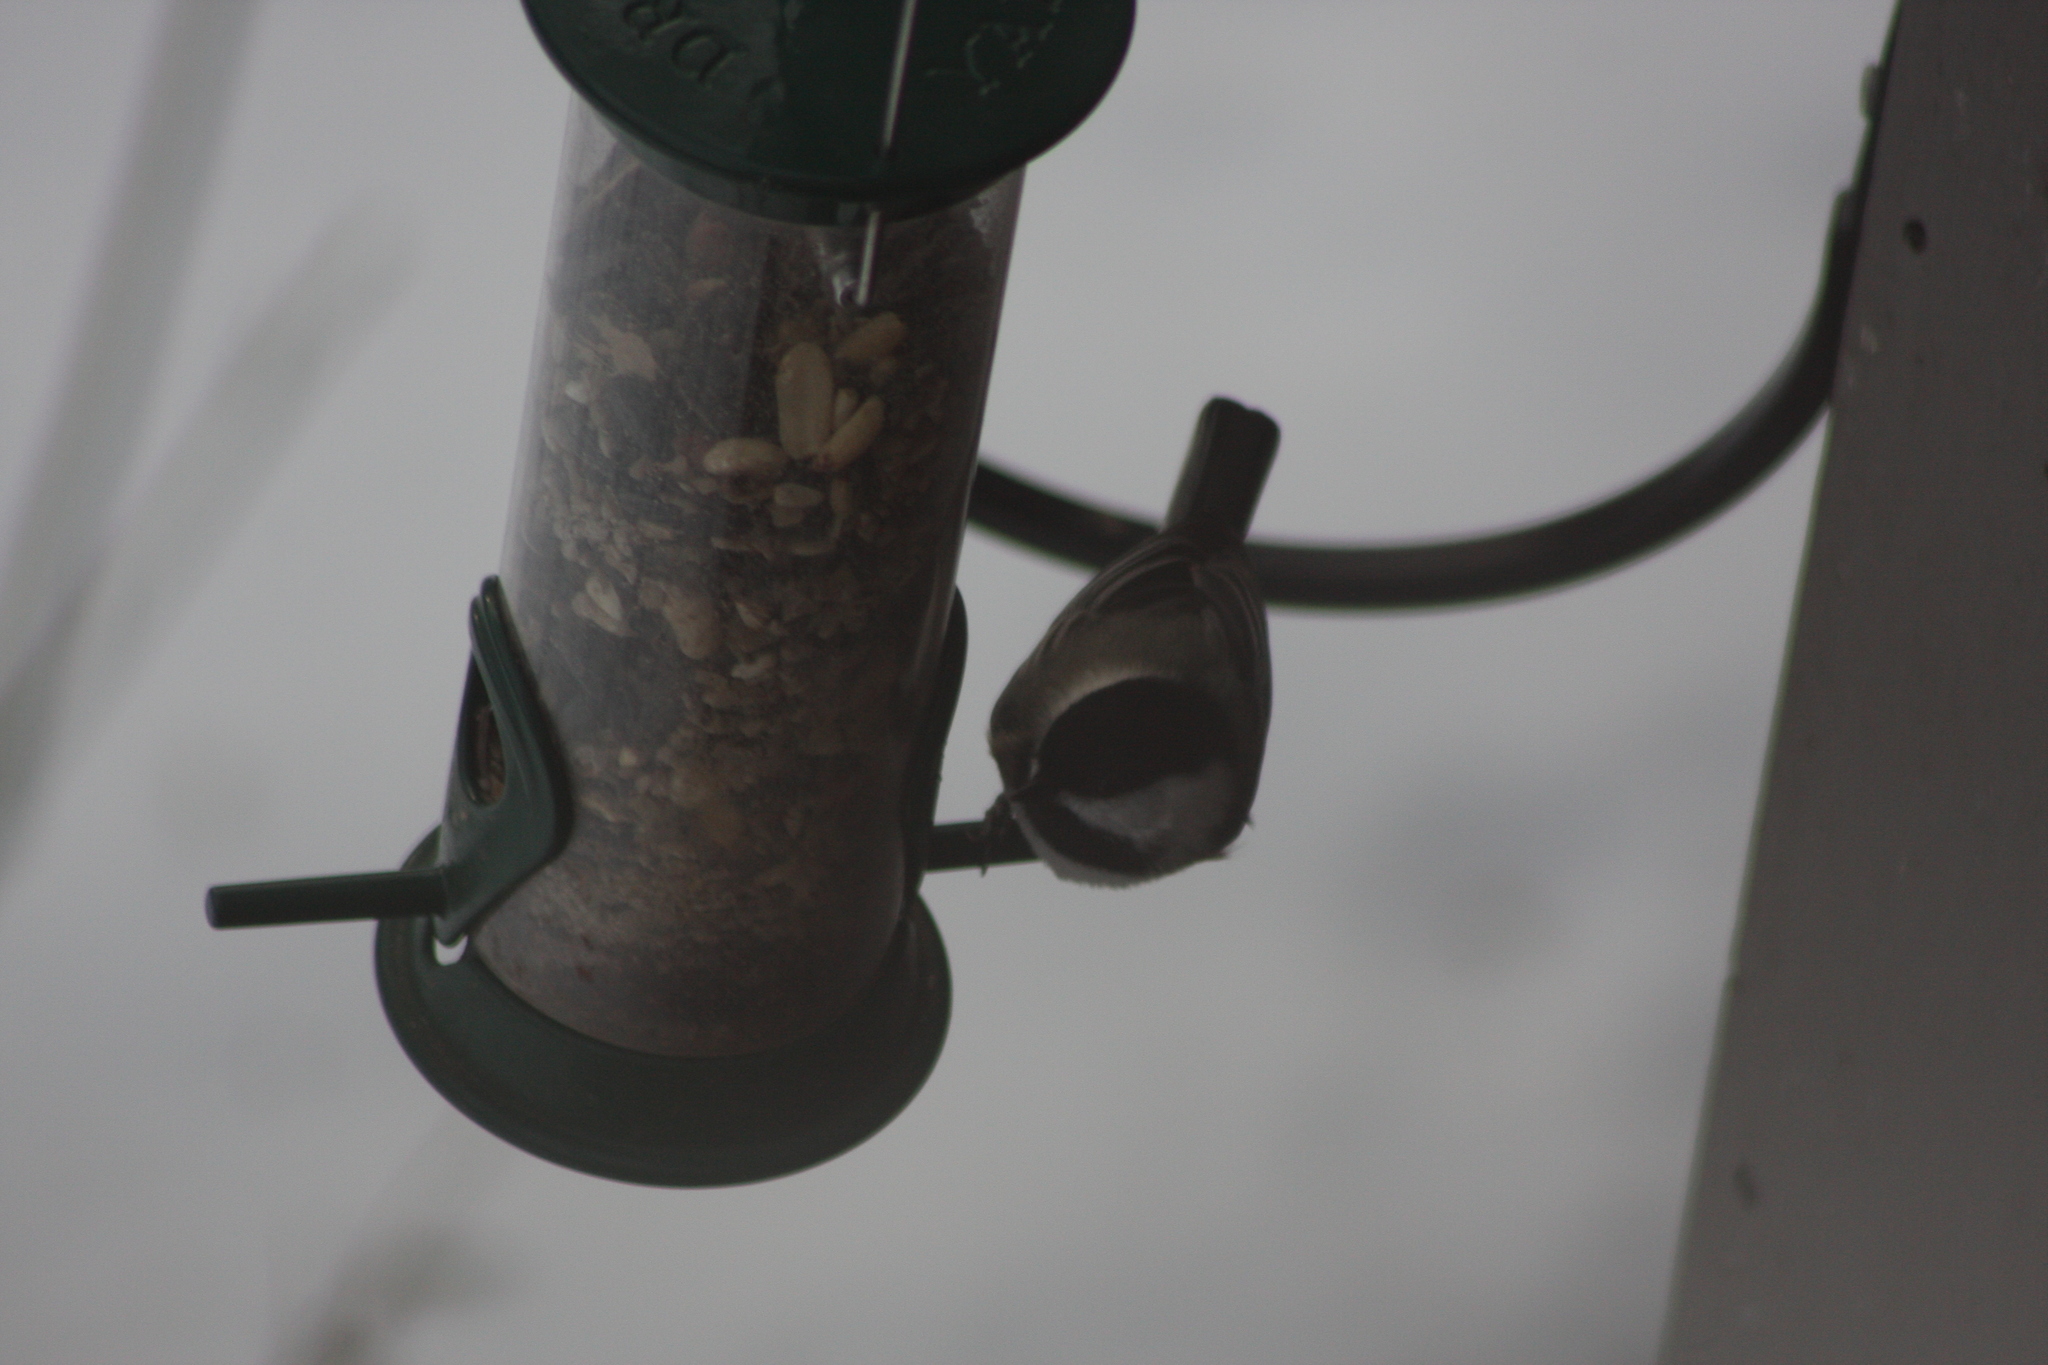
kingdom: Animalia
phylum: Chordata
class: Aves
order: Passeriformes
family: Paridae
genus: Poecile
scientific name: Poecile atricapillus
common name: Black-capped chickadee
